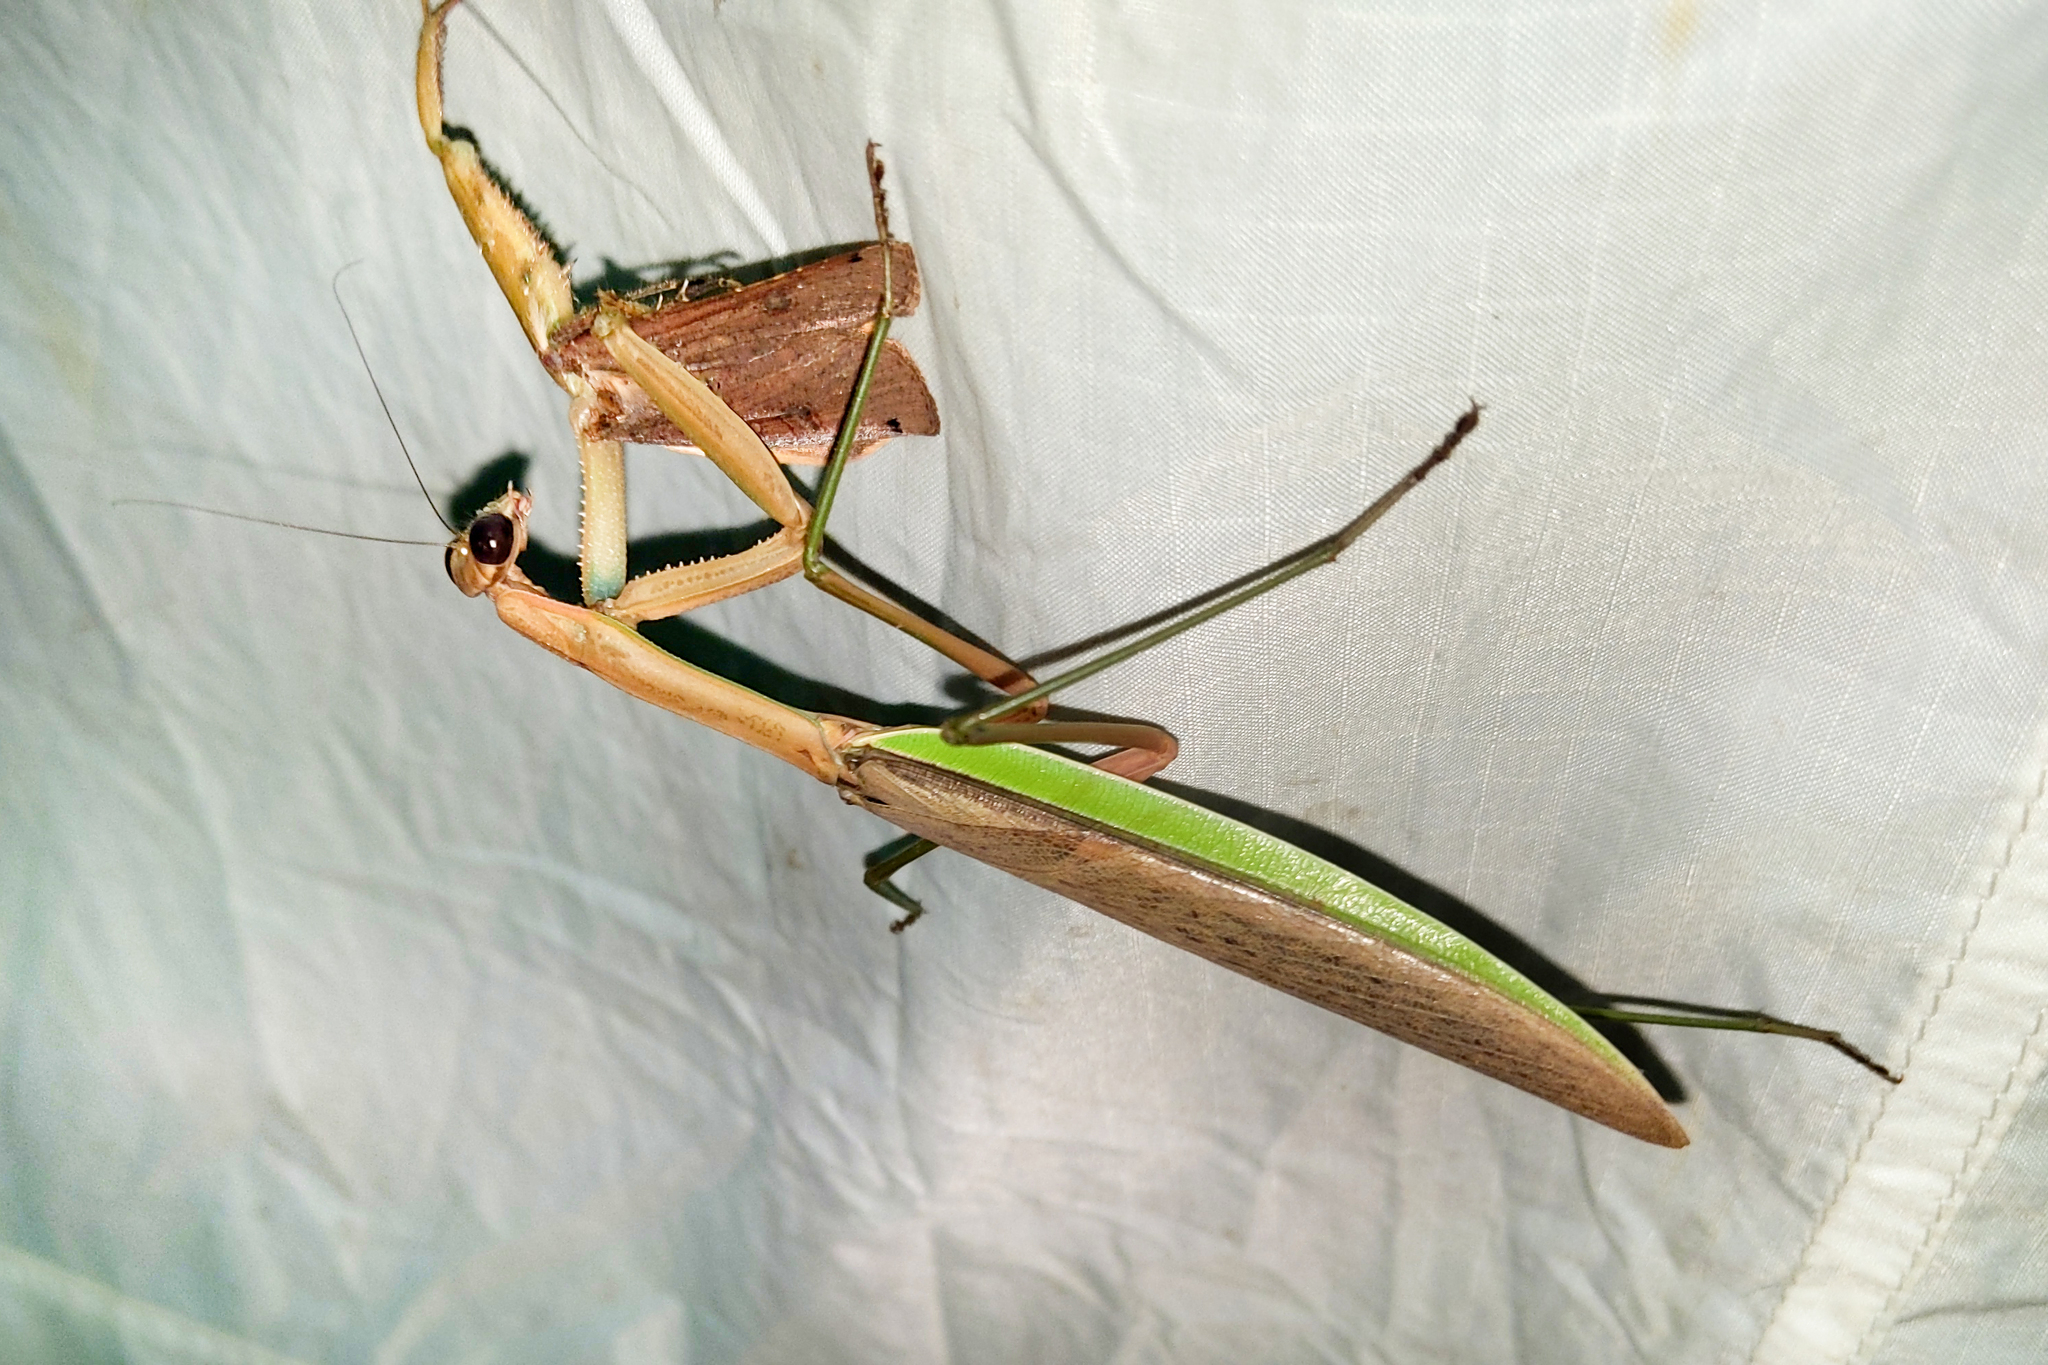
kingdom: Animalia
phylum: Arthropoda
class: Insecta
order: Mantodea
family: Mantidae
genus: Tenodera
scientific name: Tenodera sinensis
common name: Chinese mantis
